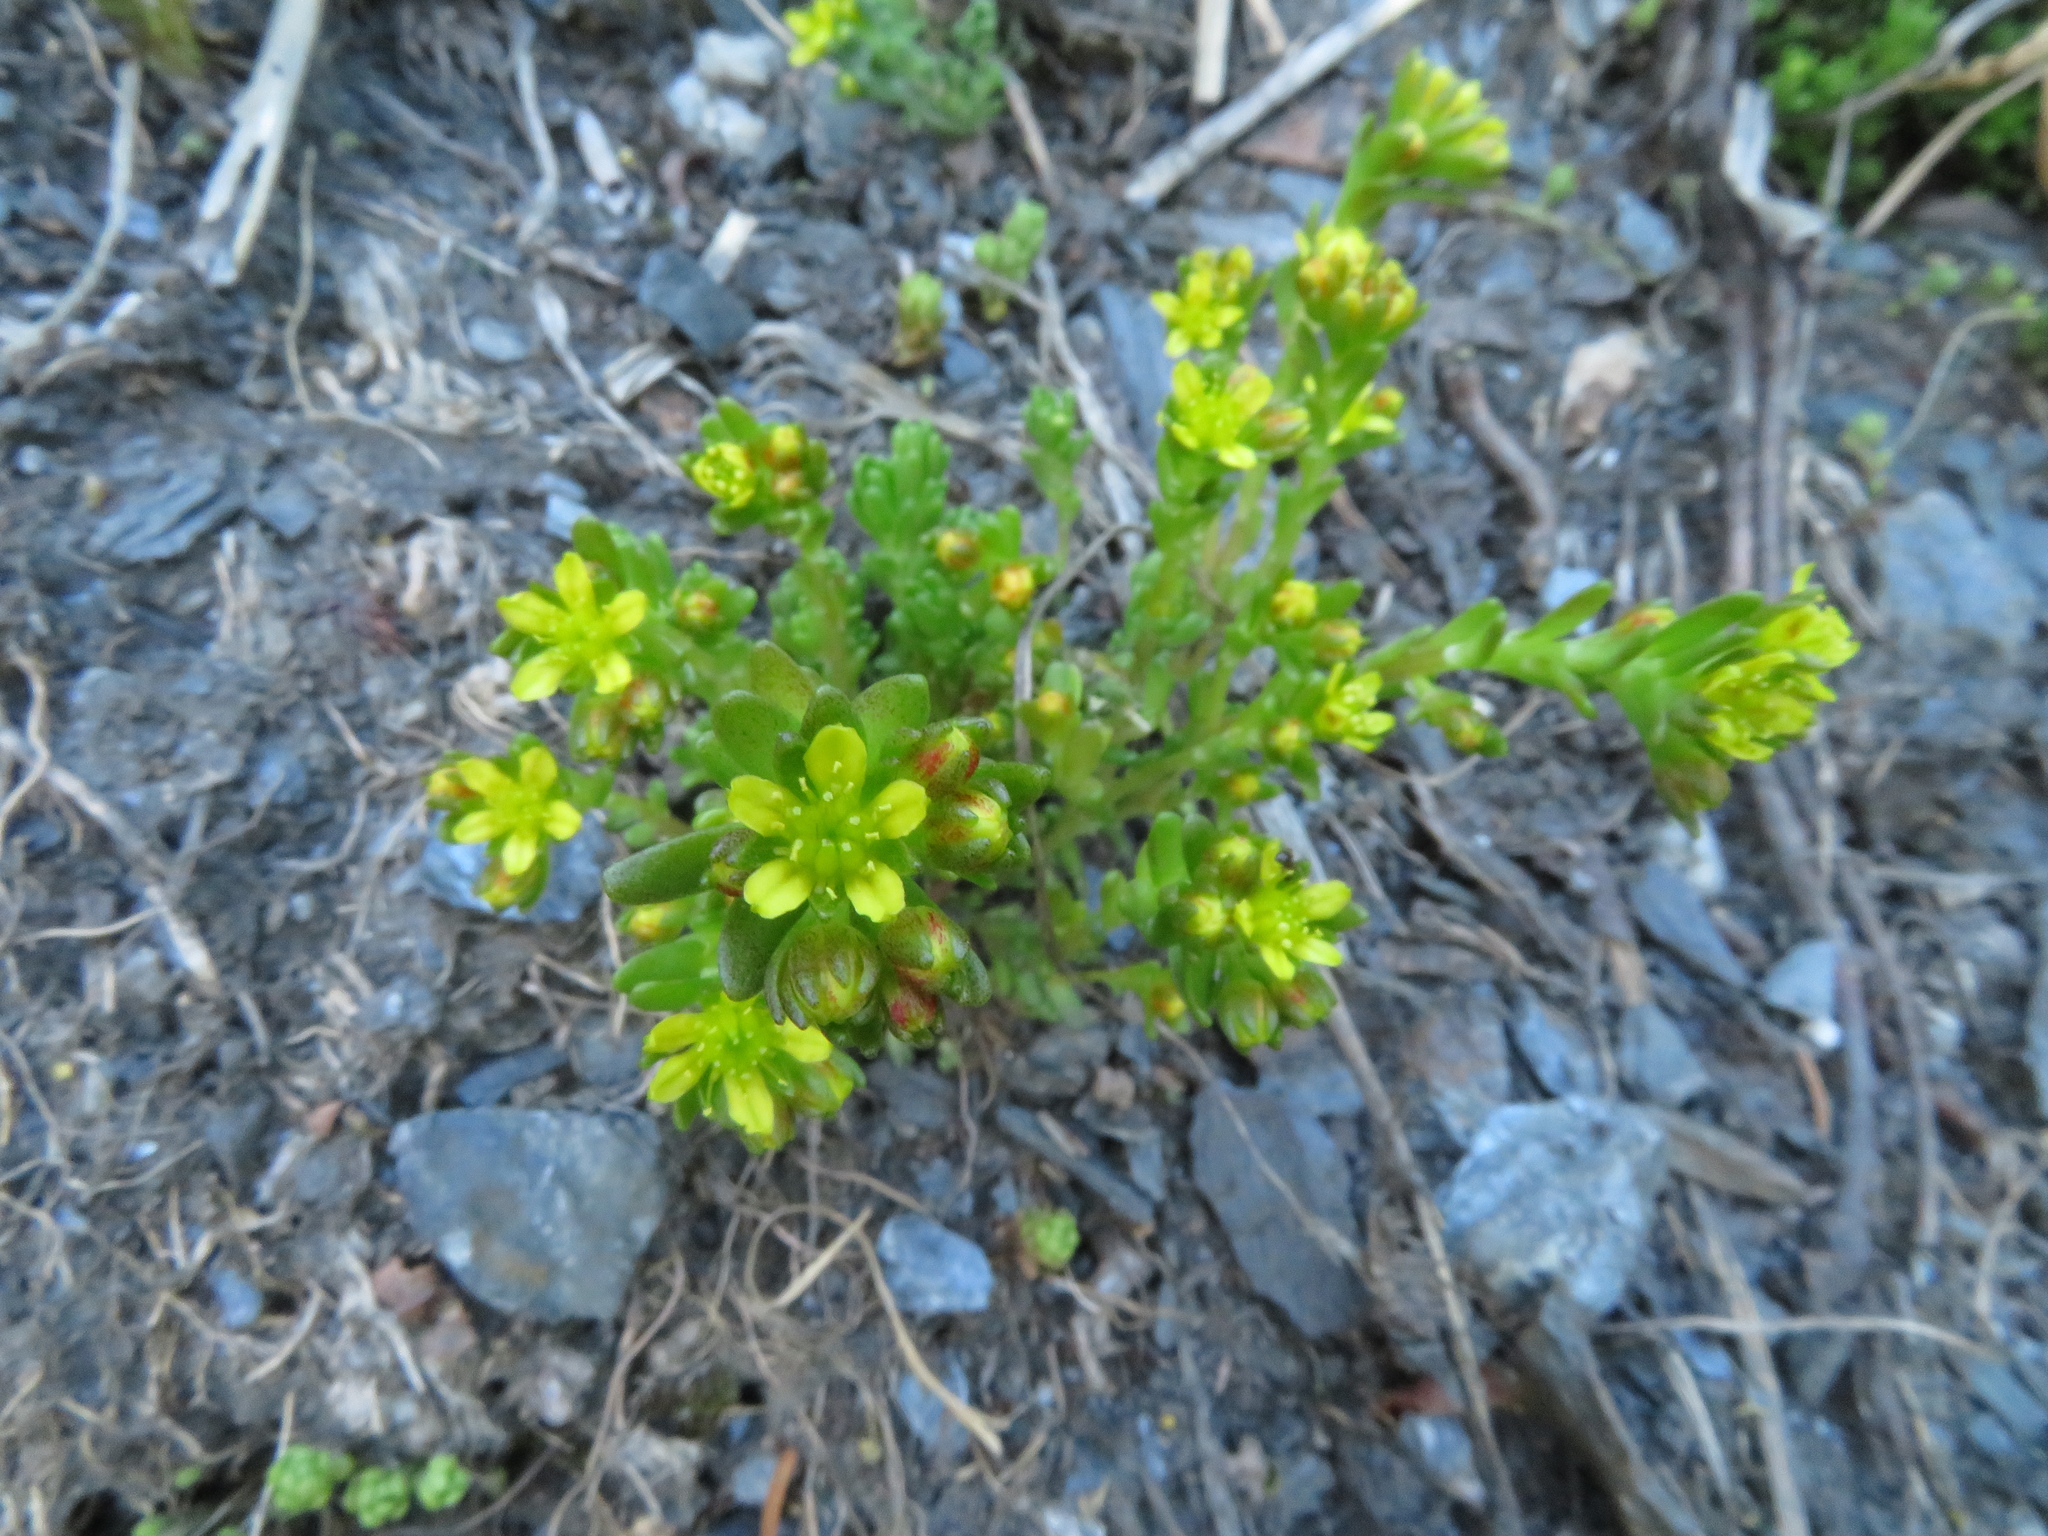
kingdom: Plantae
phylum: Tracheophyta
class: Magnoliopsida
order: Saxifragales
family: Crassulaceae
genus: Sedum
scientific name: Sedum alpestre
